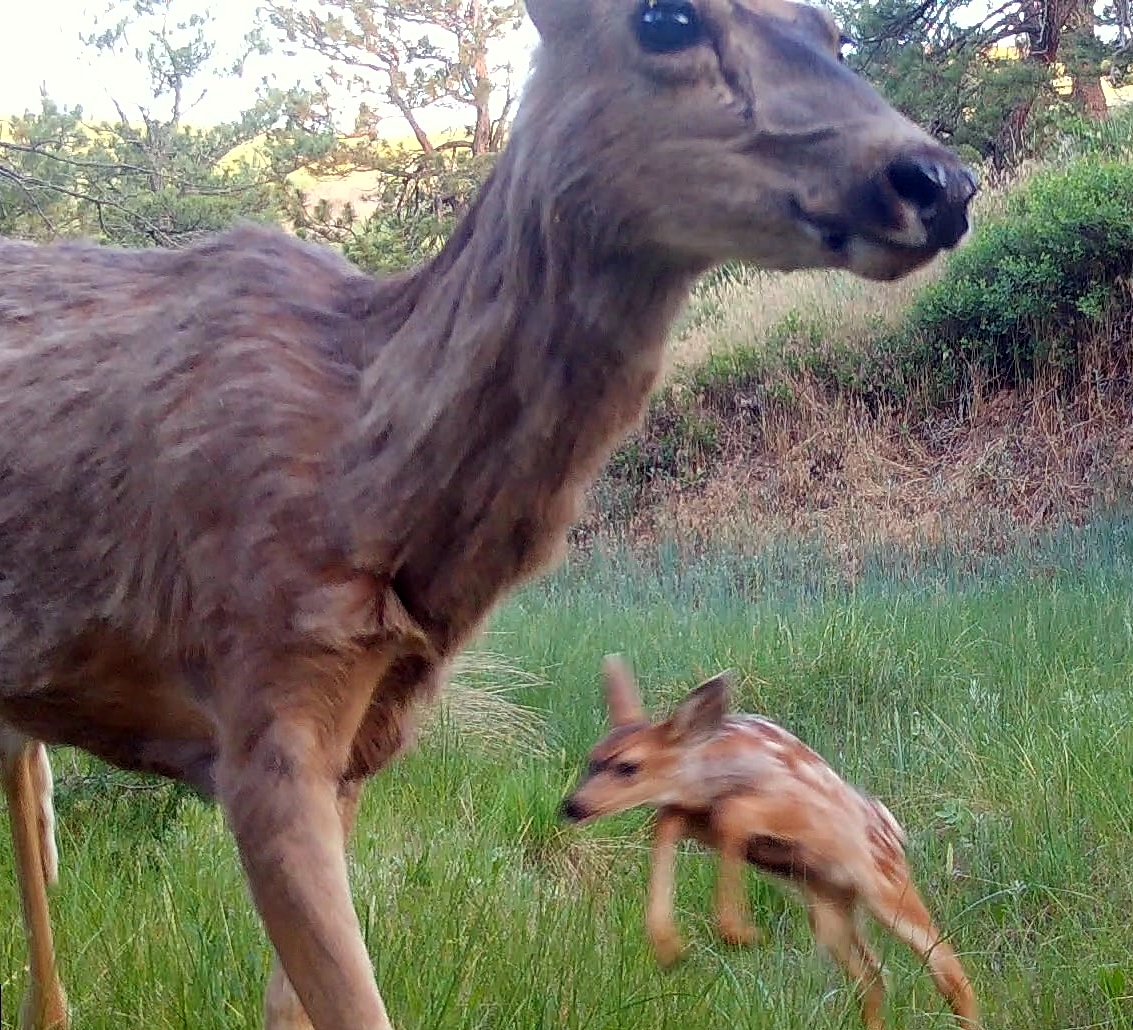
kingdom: Animalia
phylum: Chordata
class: Mammalia
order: Artiodactyla
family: Cervidae
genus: Odocoileus
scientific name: Odocoileus hemionus
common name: Mule deer
